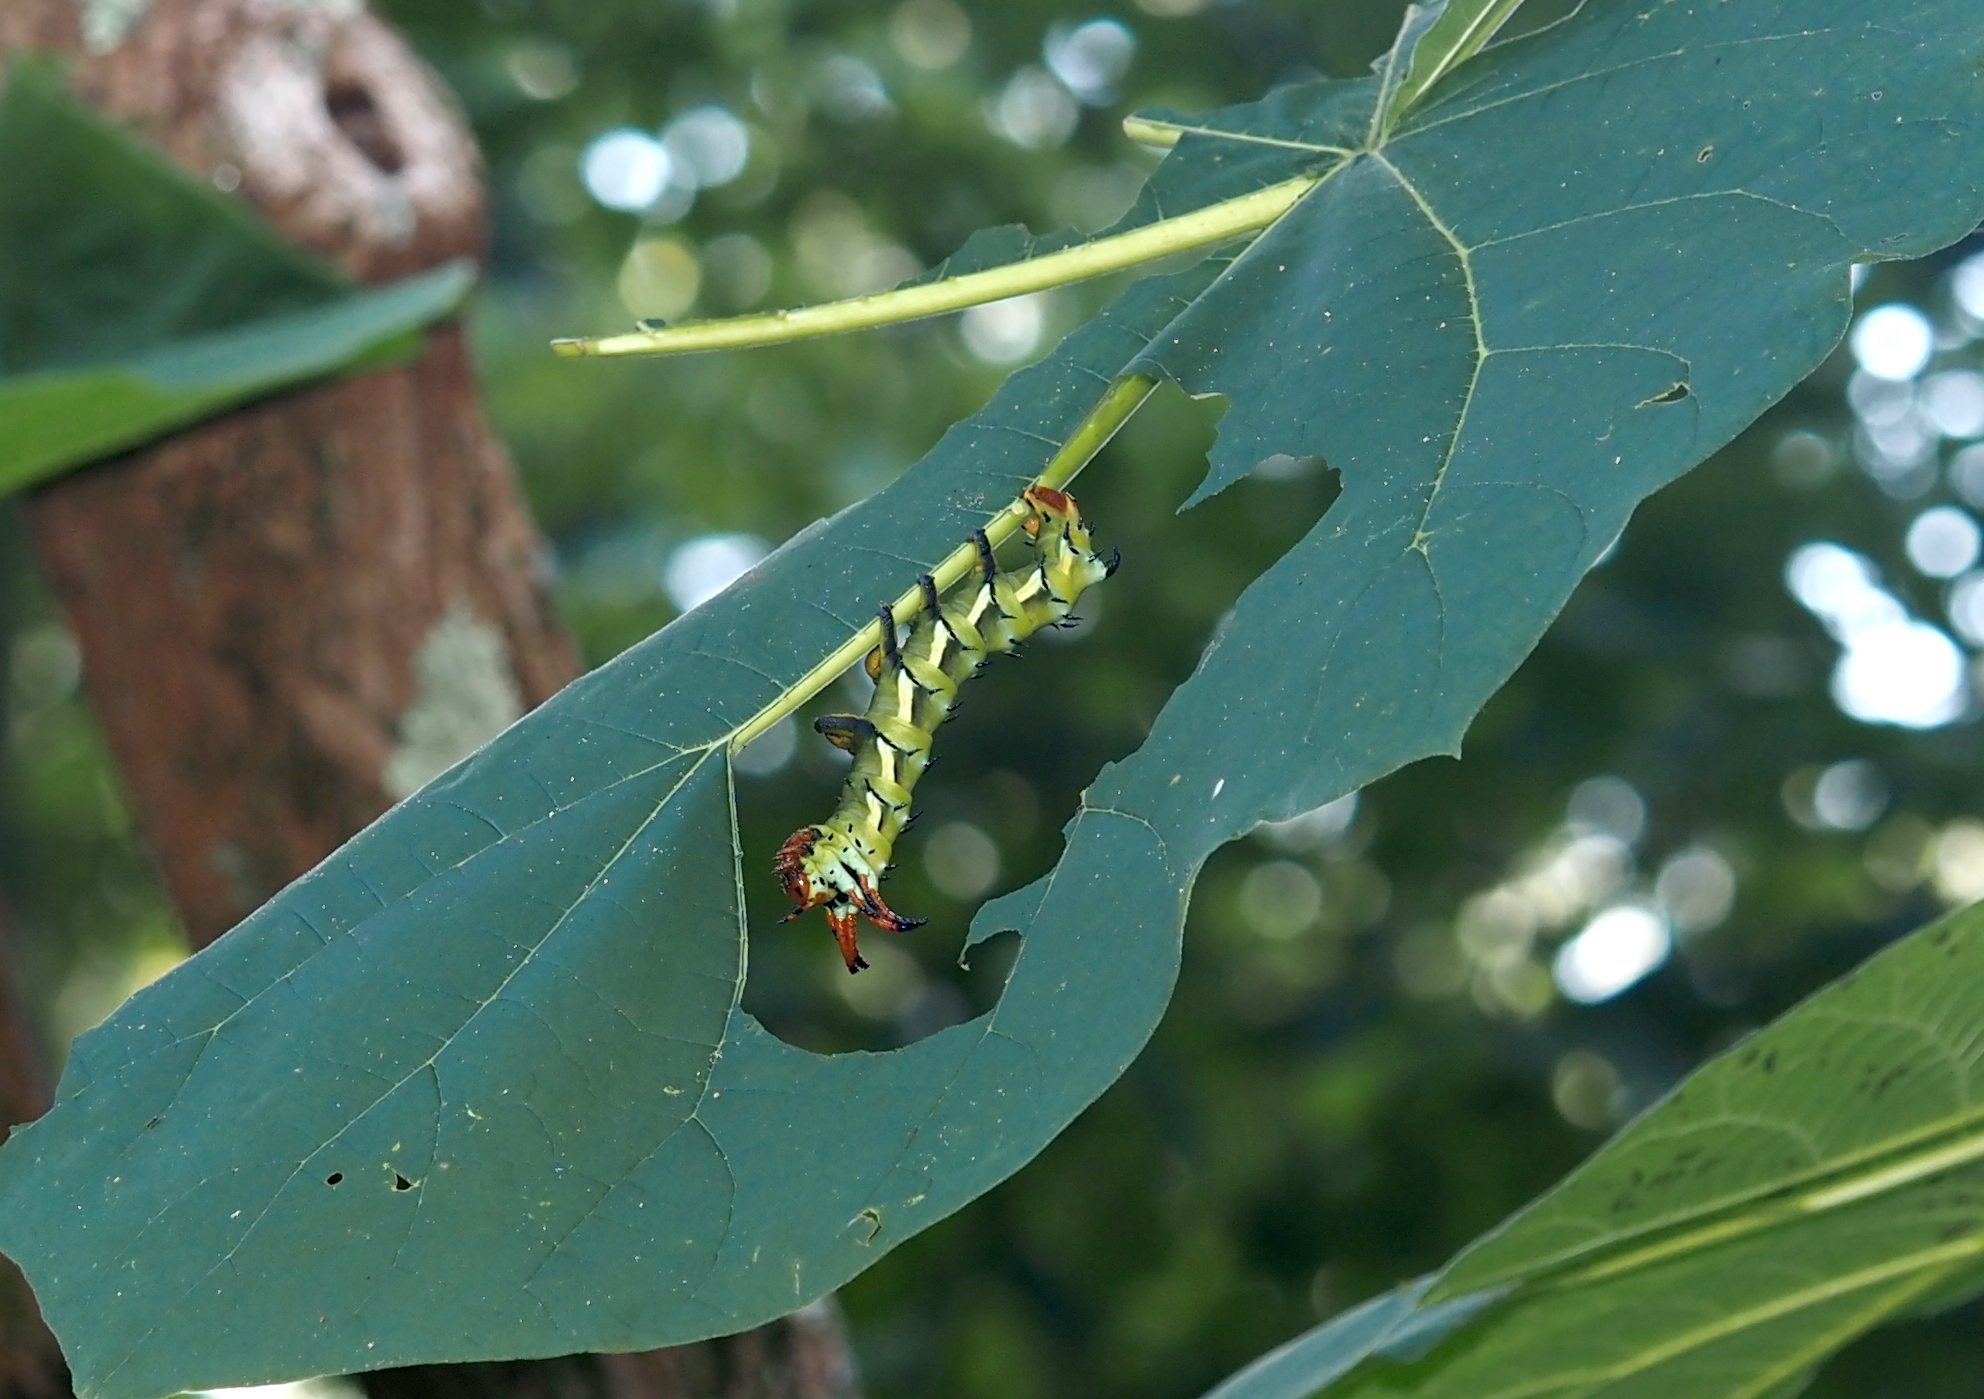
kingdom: Animalia
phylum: Arthropoda
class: Insecta
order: Lepidoptera
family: Saturniidae
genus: Citheronia
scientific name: Citheronia regalis
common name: Hickory horned devil
